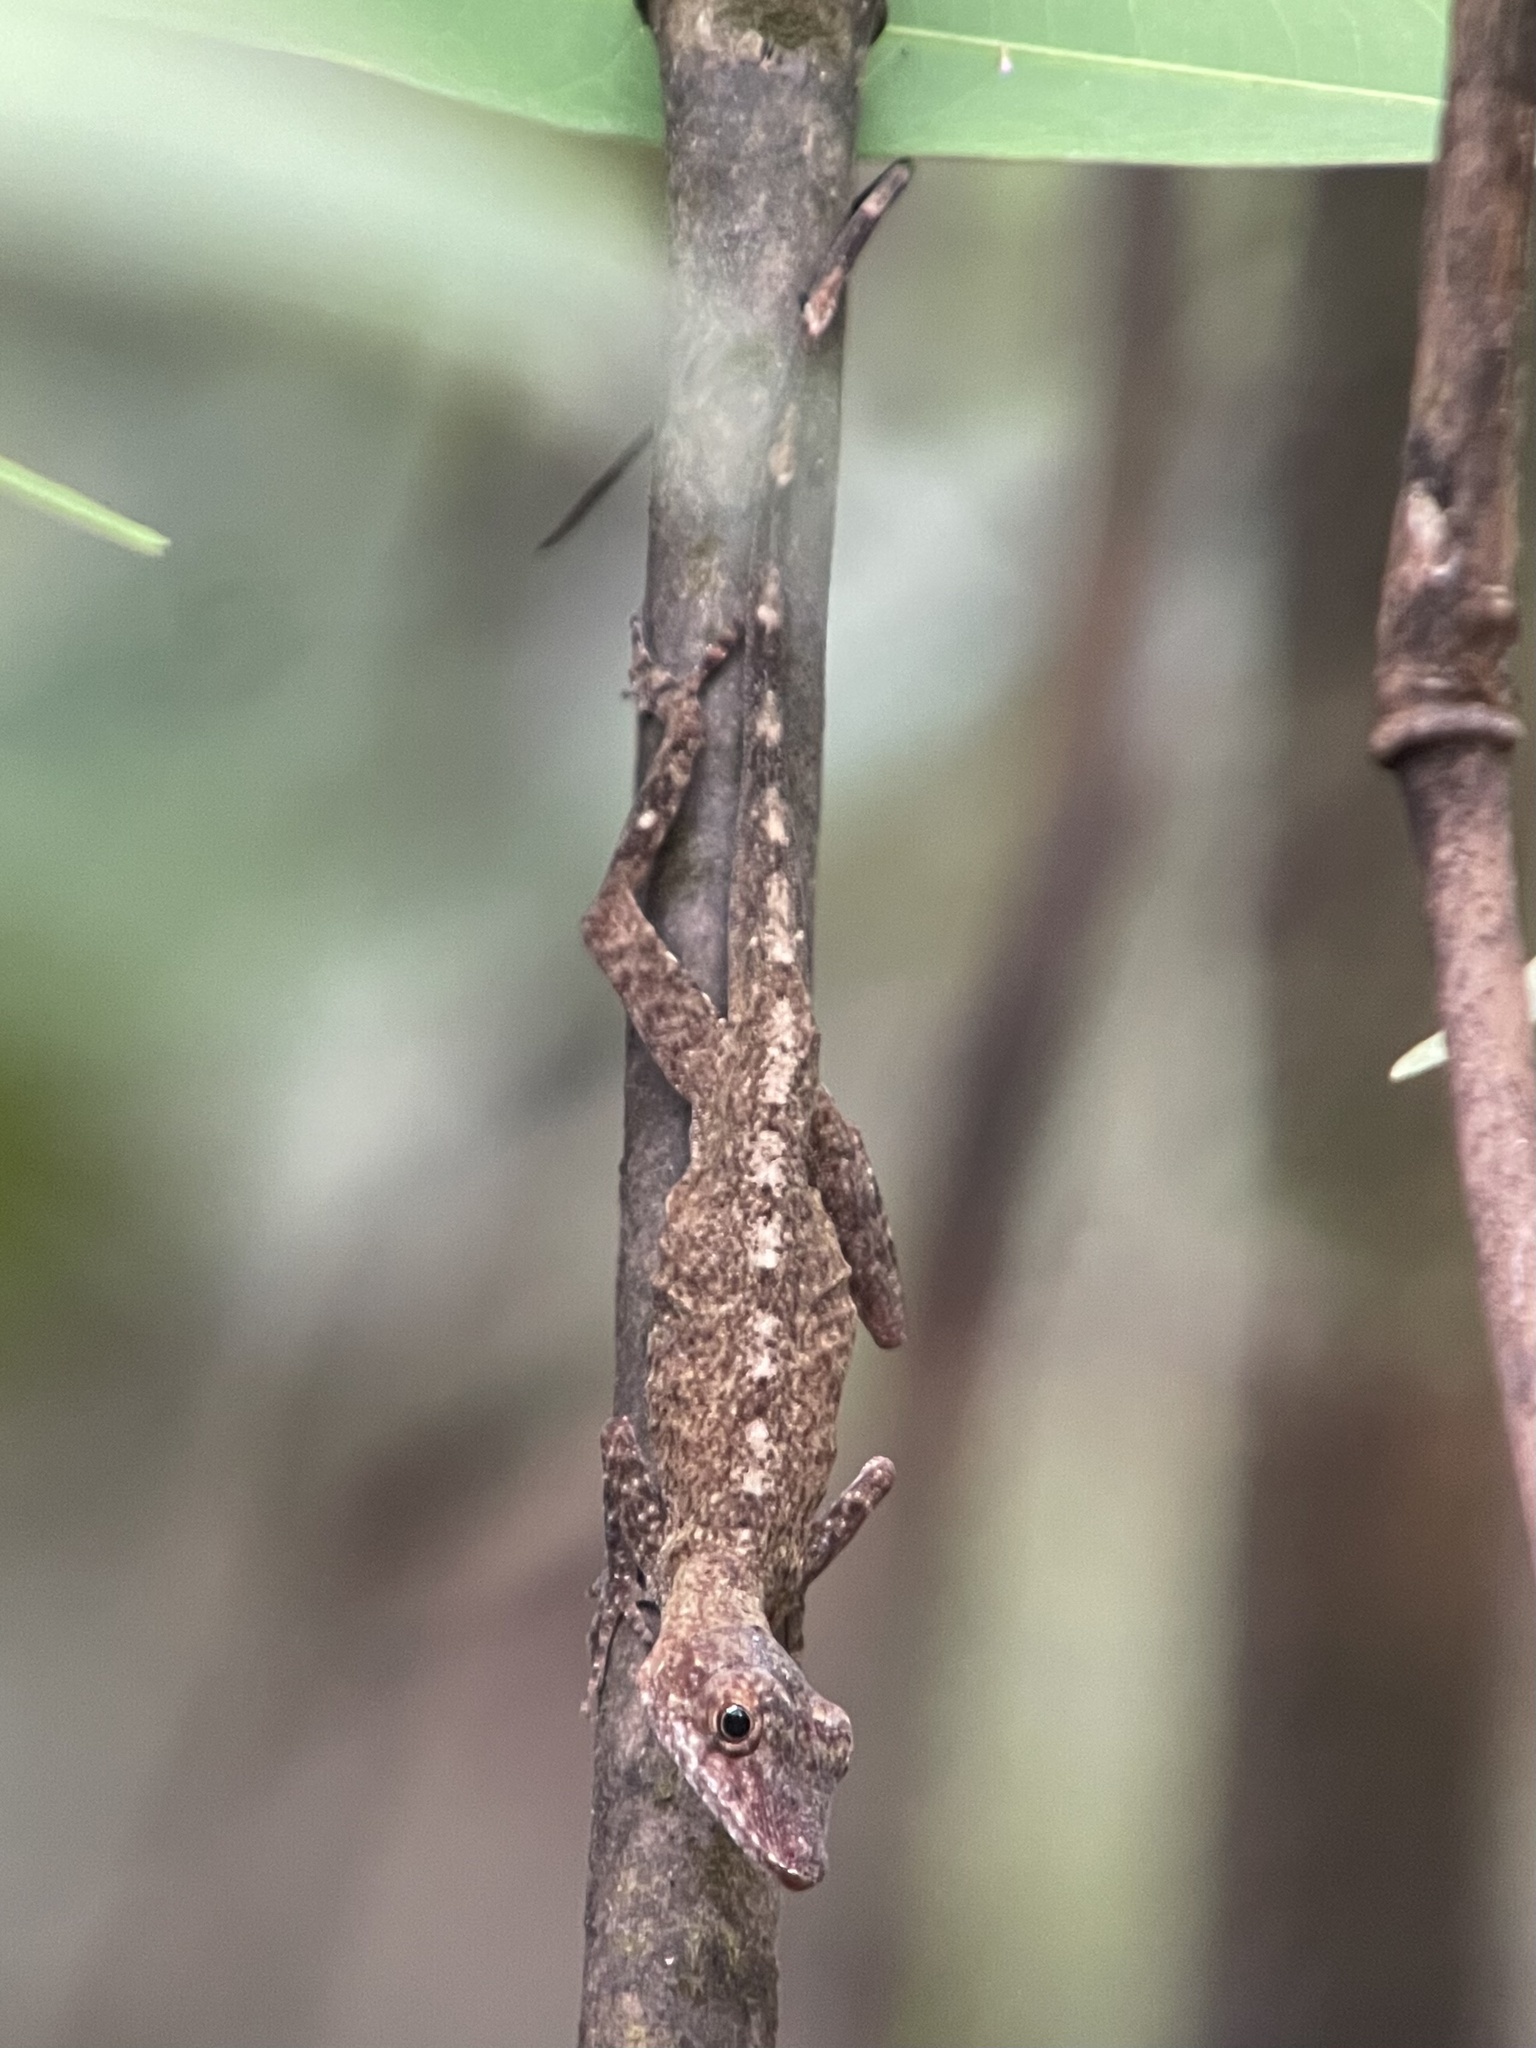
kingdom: Animalia
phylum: Chordata
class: Squamata
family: Dactyloidae
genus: Anolis
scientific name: Anolis ortonii
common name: Bark anole
